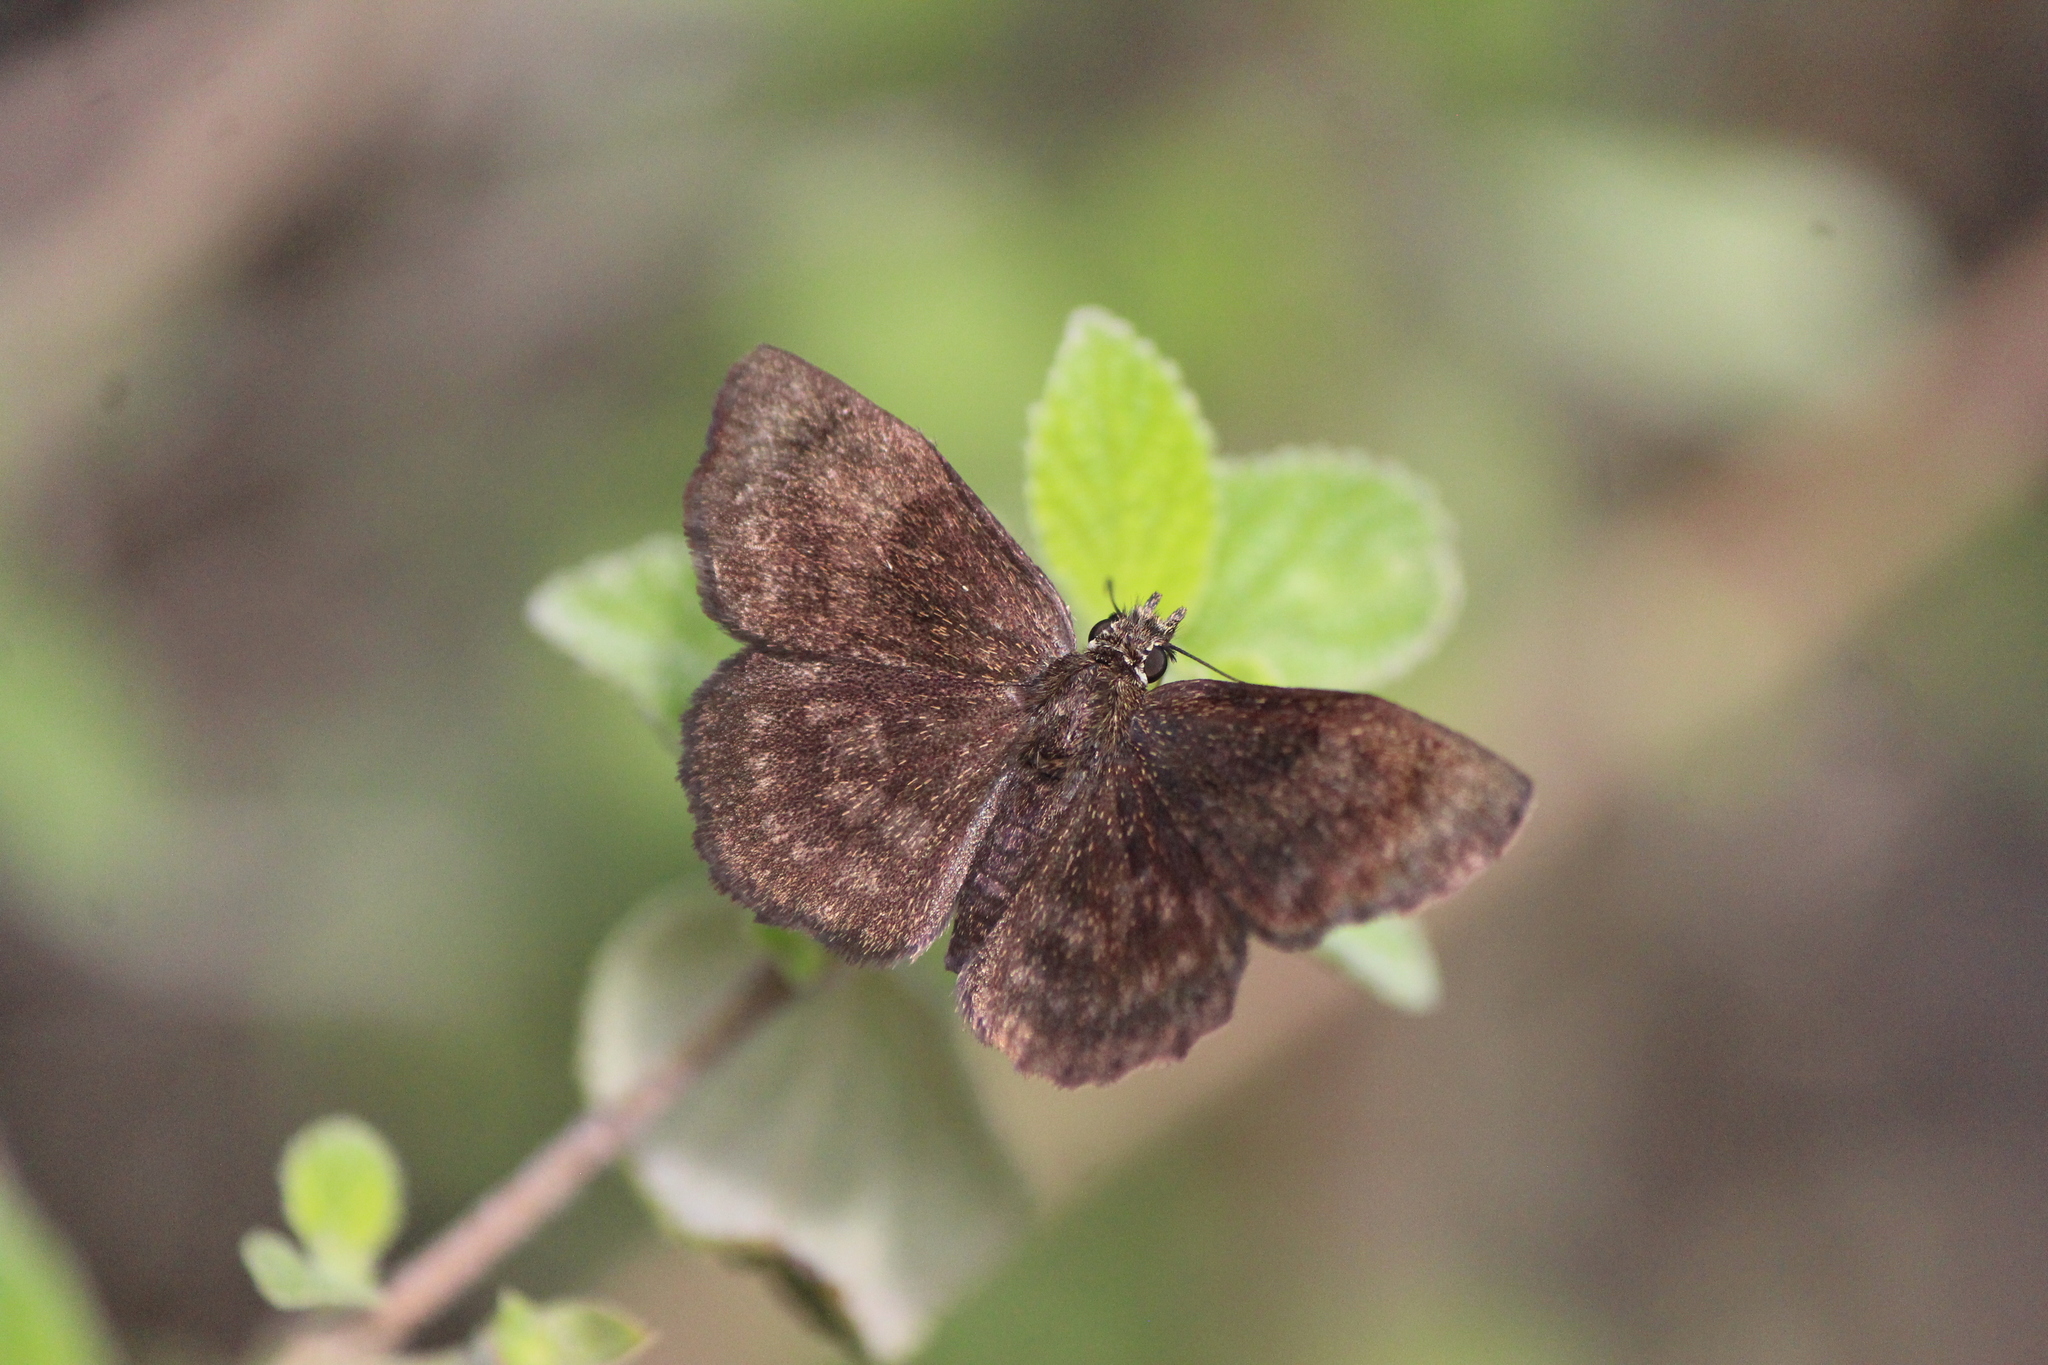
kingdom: Animalia
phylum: Arthropoda
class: Insecta
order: Lepidoptera
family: Hesperiidae
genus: Bolla
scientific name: Bolla subapicatus
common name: Pine-oak bolla
